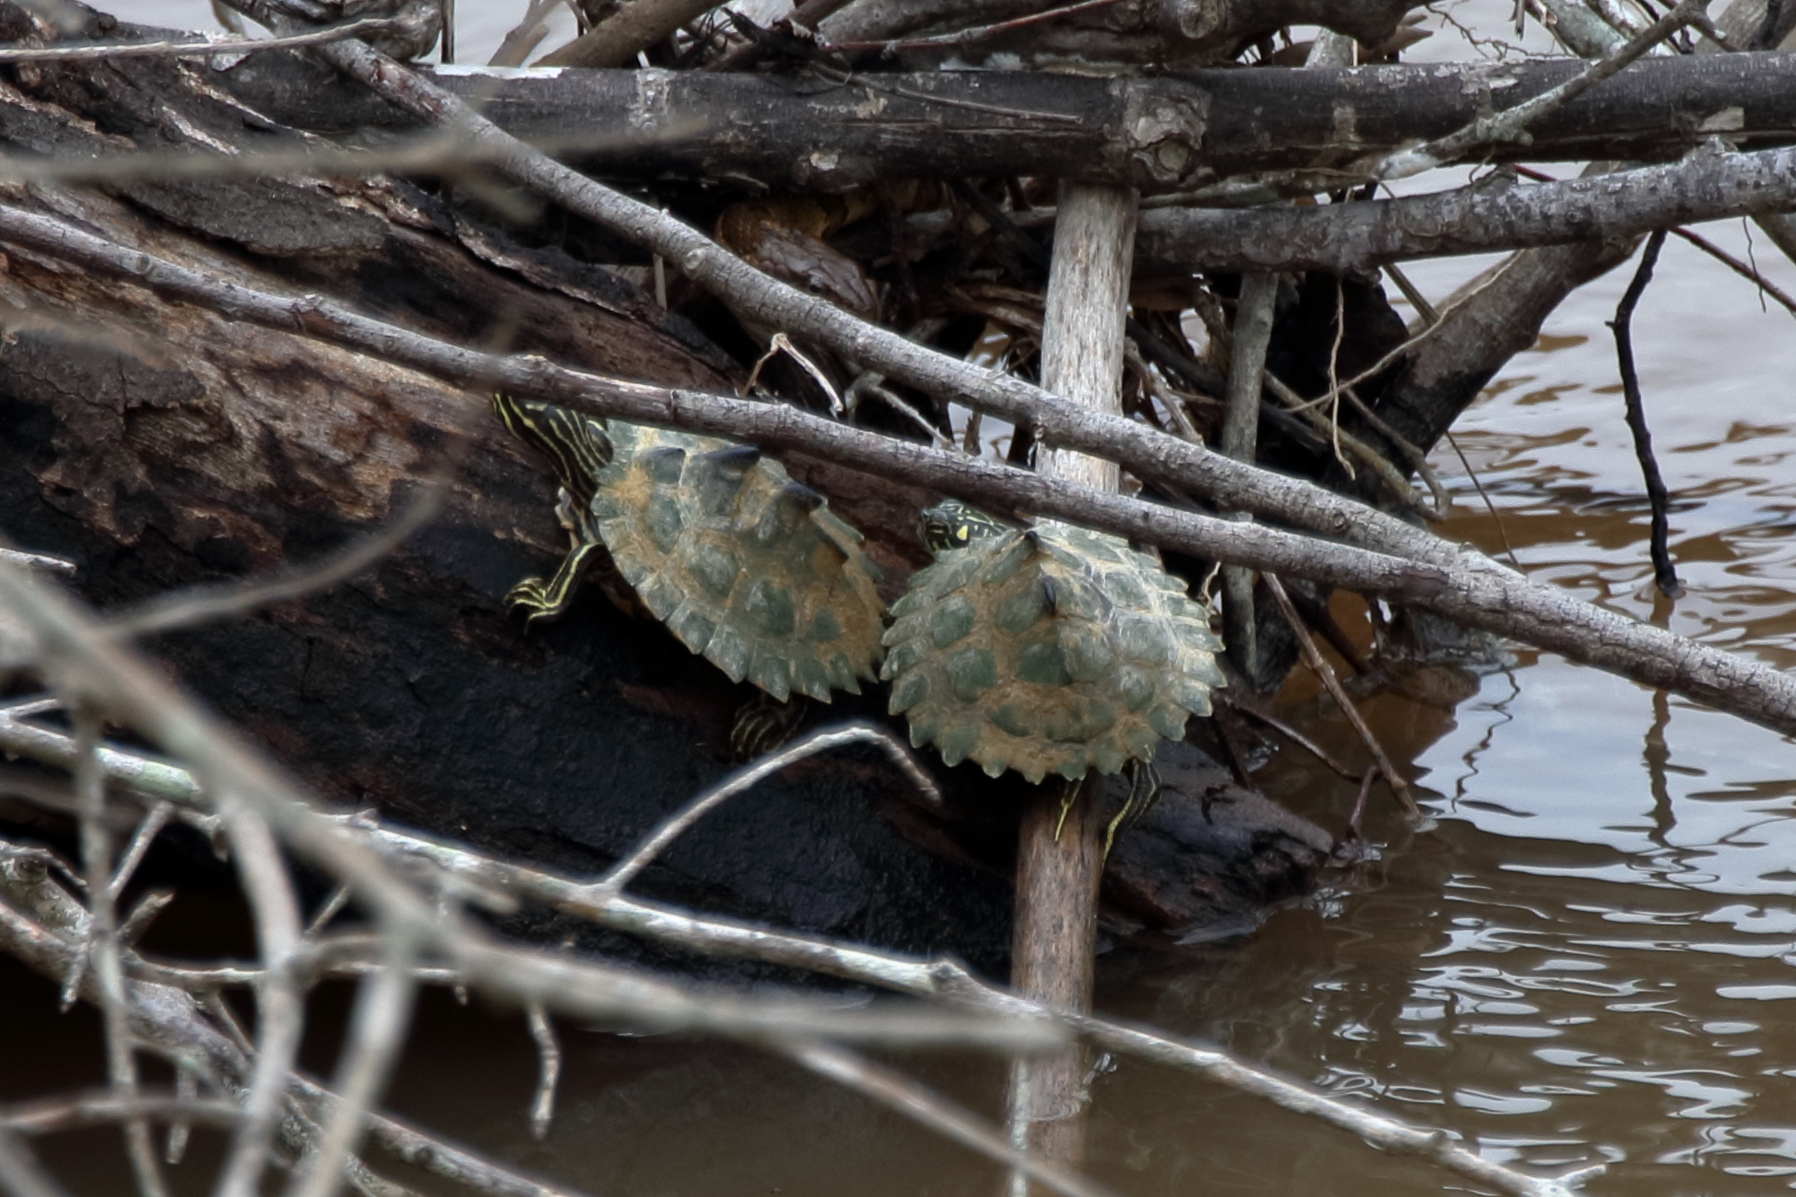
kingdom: Animalia
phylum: Chordata
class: Testudines
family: Emydidae
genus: Graptemys
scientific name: Graptemys oculifera
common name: Ringed map turtle
